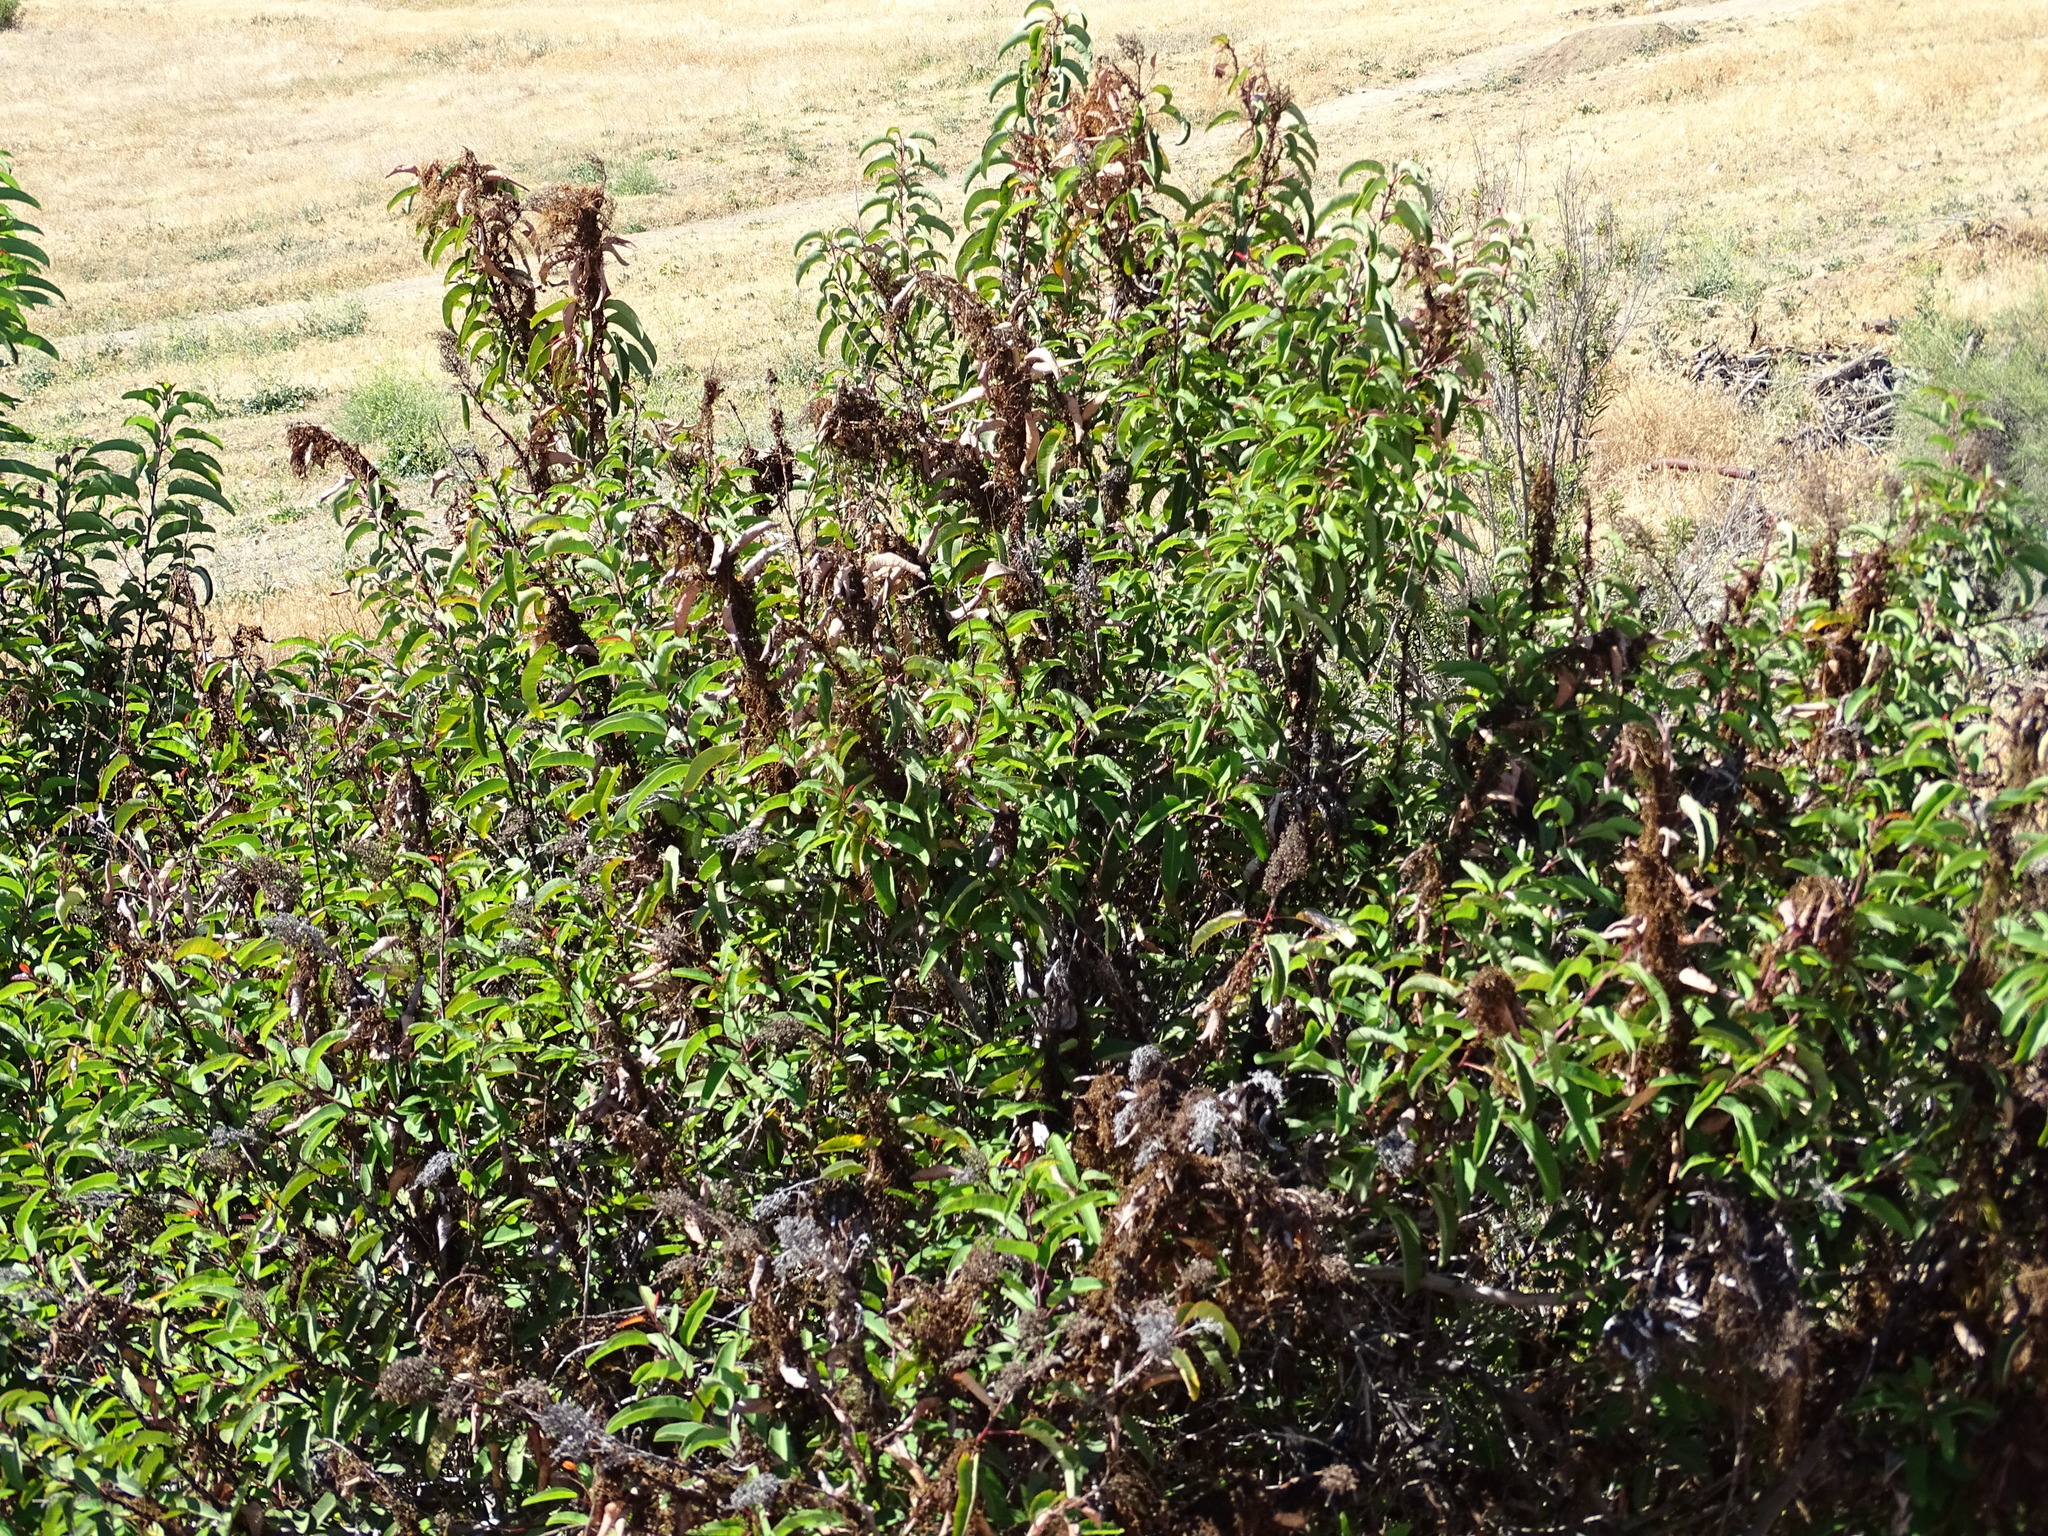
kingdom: Plantae
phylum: Tracheophyta
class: Magnoliopsida
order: Sapindales
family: Anacardiaceae
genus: Malosma
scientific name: Malosma laurina
